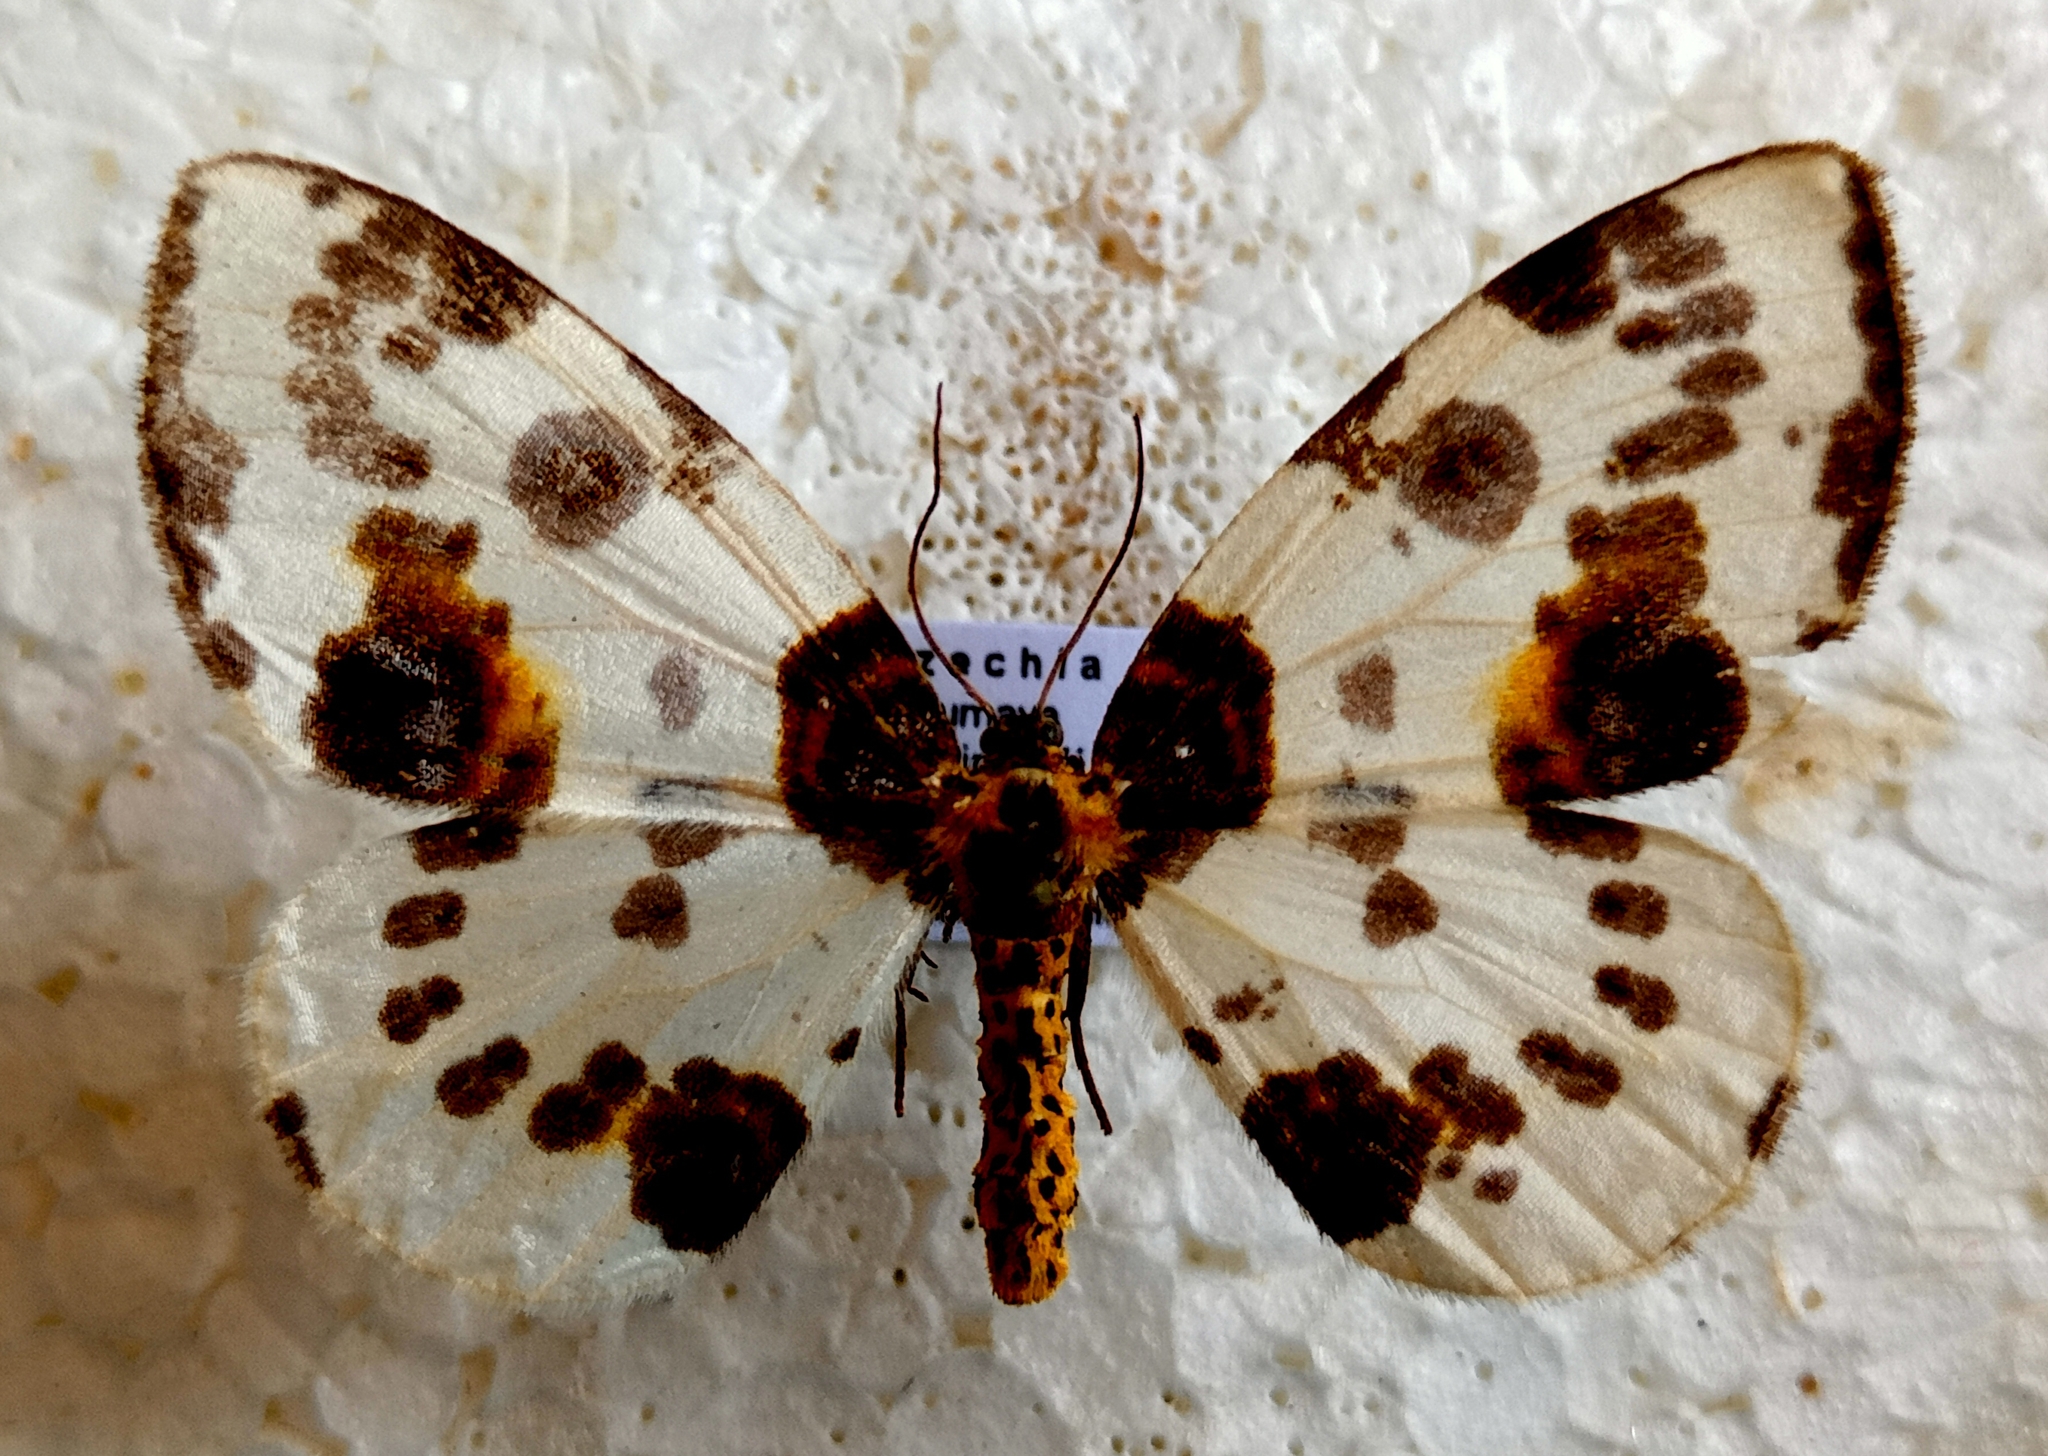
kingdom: Animalia
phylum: Arthropoda
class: Insecta
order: Lepidoptera
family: Geometridae
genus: Abraxas
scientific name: Abraxas sylvata
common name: Clouded magpie
